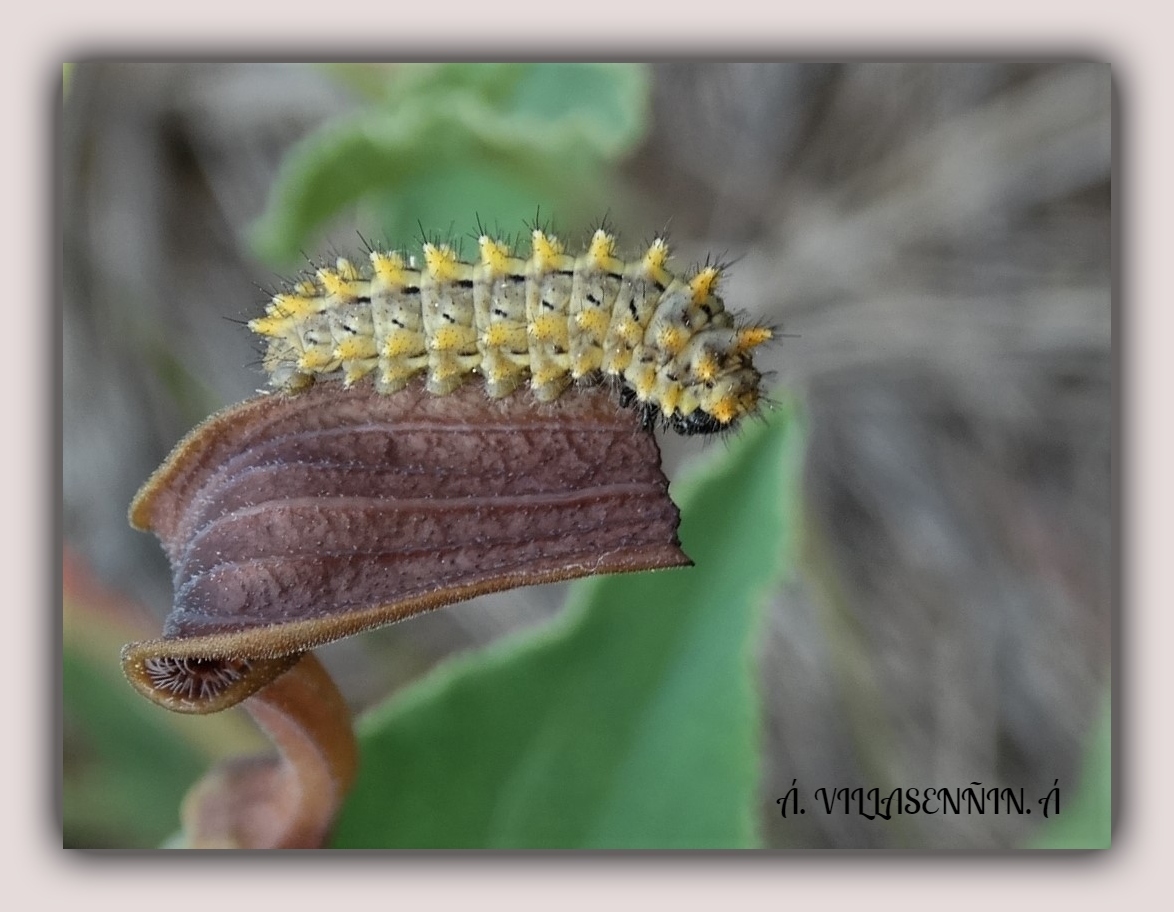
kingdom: Animalia
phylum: Arthropoda
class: Insecta
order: Lepidoptera
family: Papilionidae
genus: Zerynthia
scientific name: Zerynthia rumina
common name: Spanish festoon
